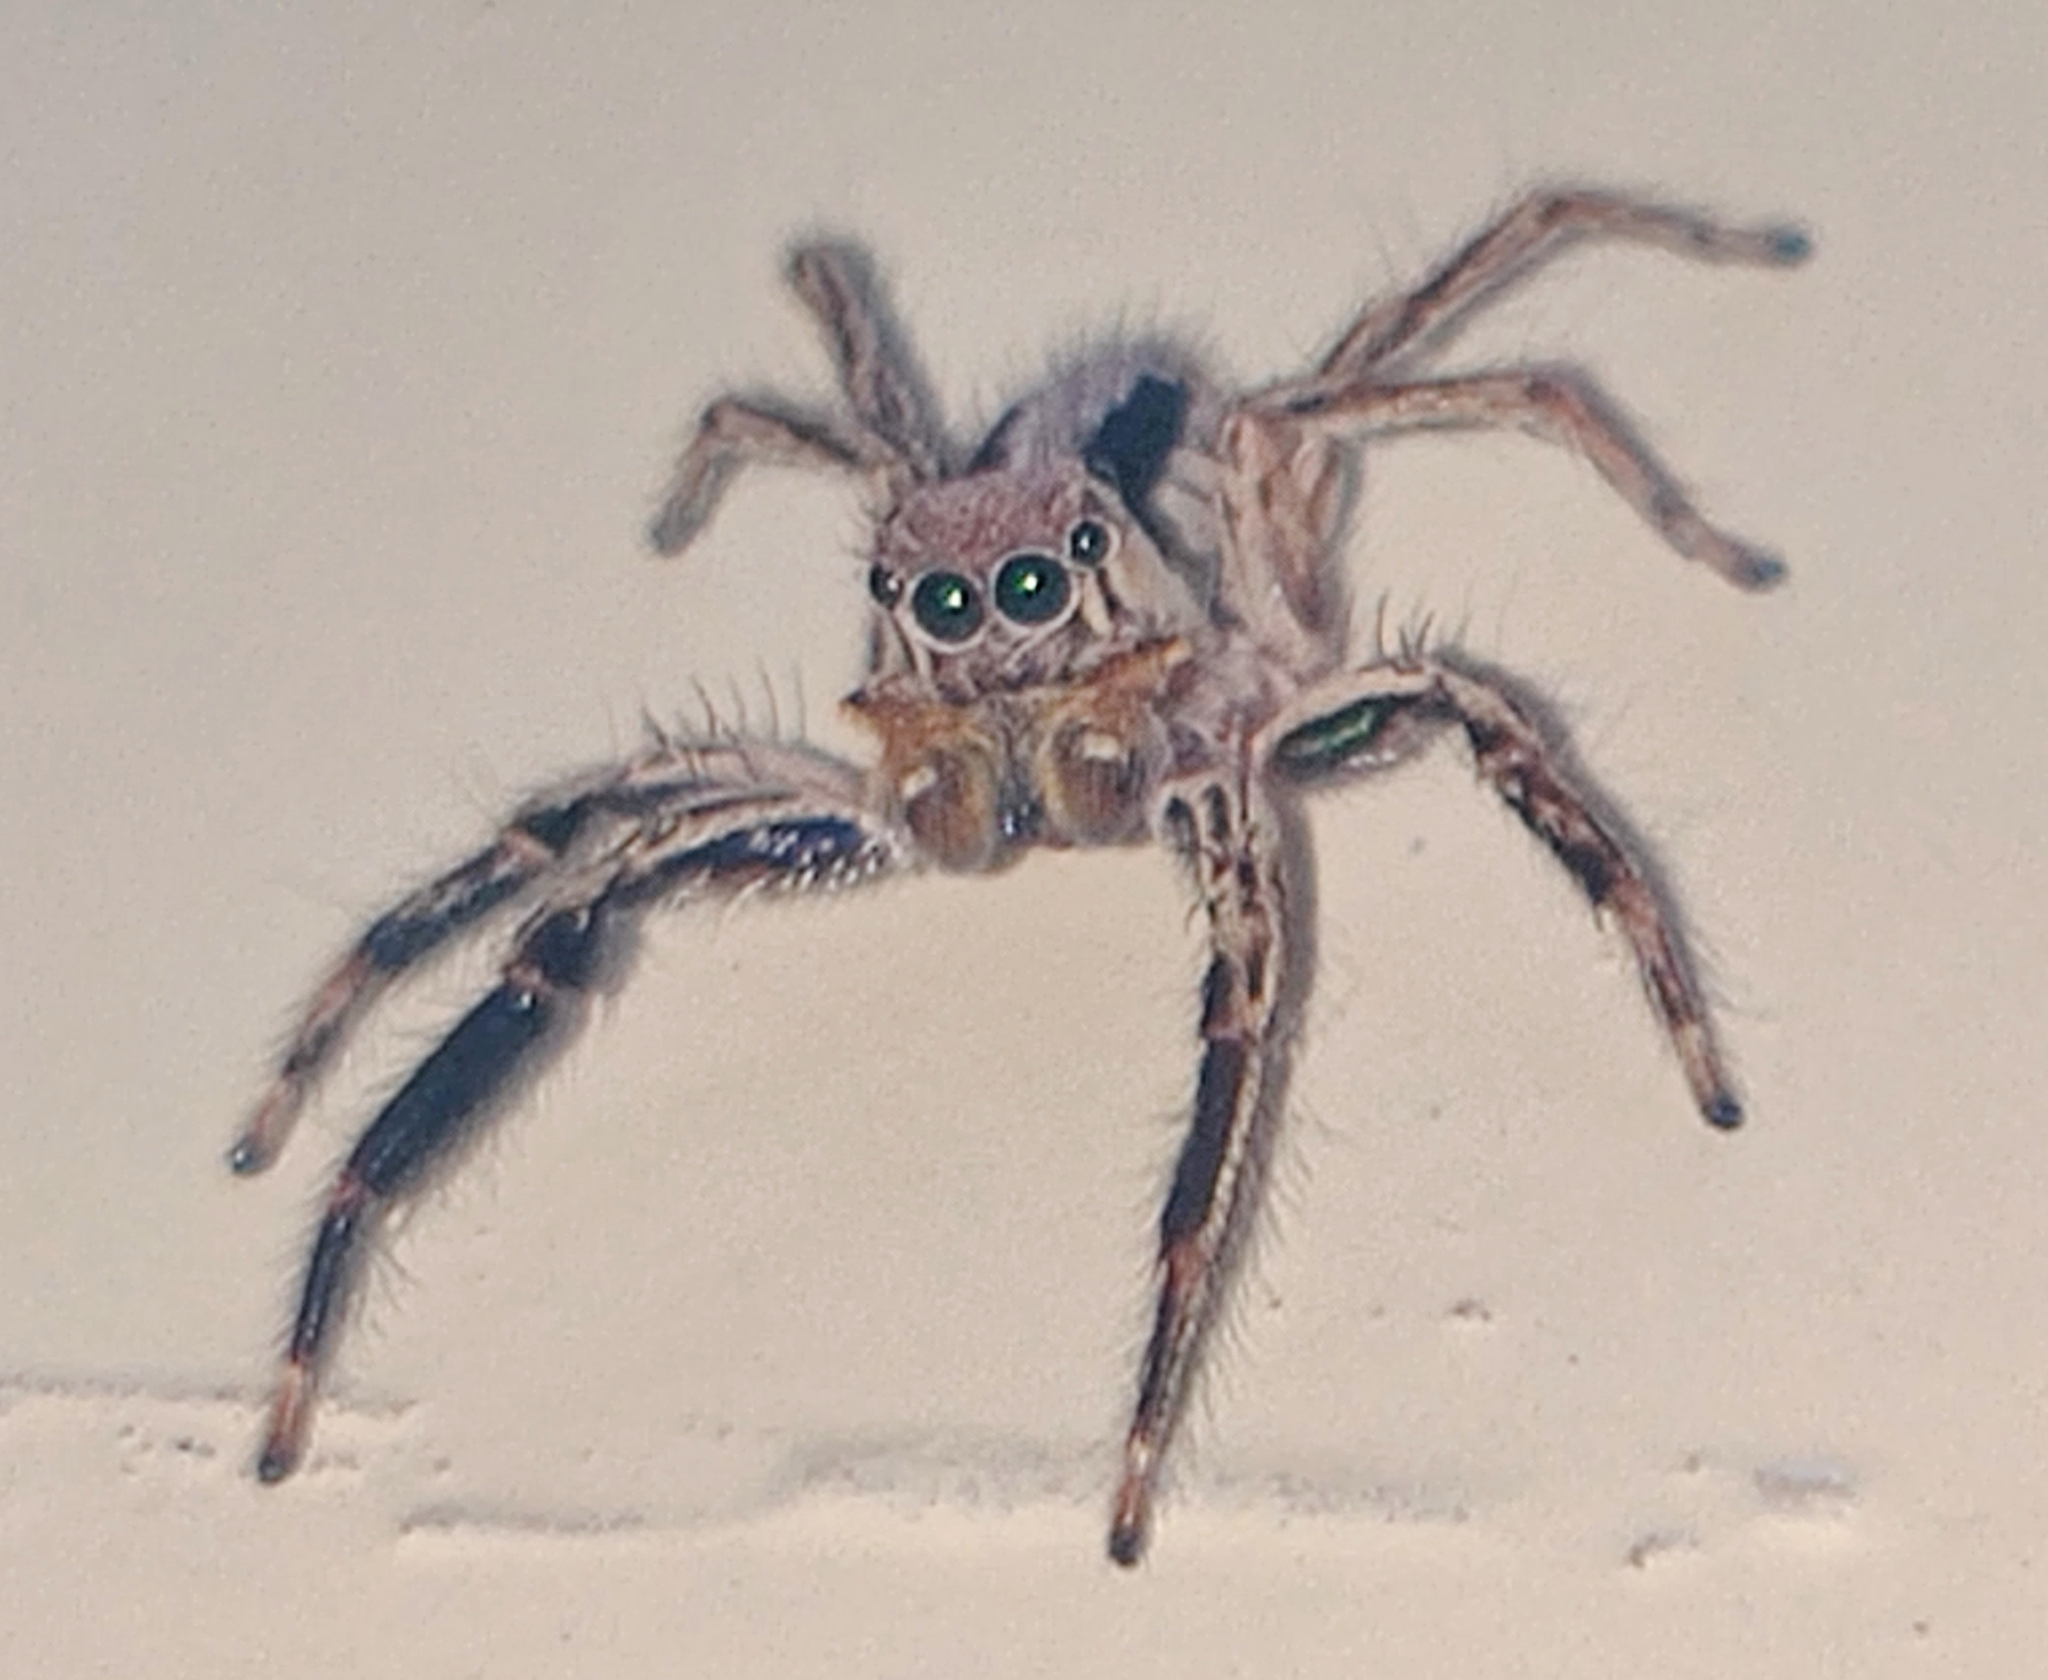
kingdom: Animalia
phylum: Arthropoda
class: Arachnida
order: Araneae
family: Salticidae
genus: Plexippus
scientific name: Plexippus petersi
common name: Jumping spider
